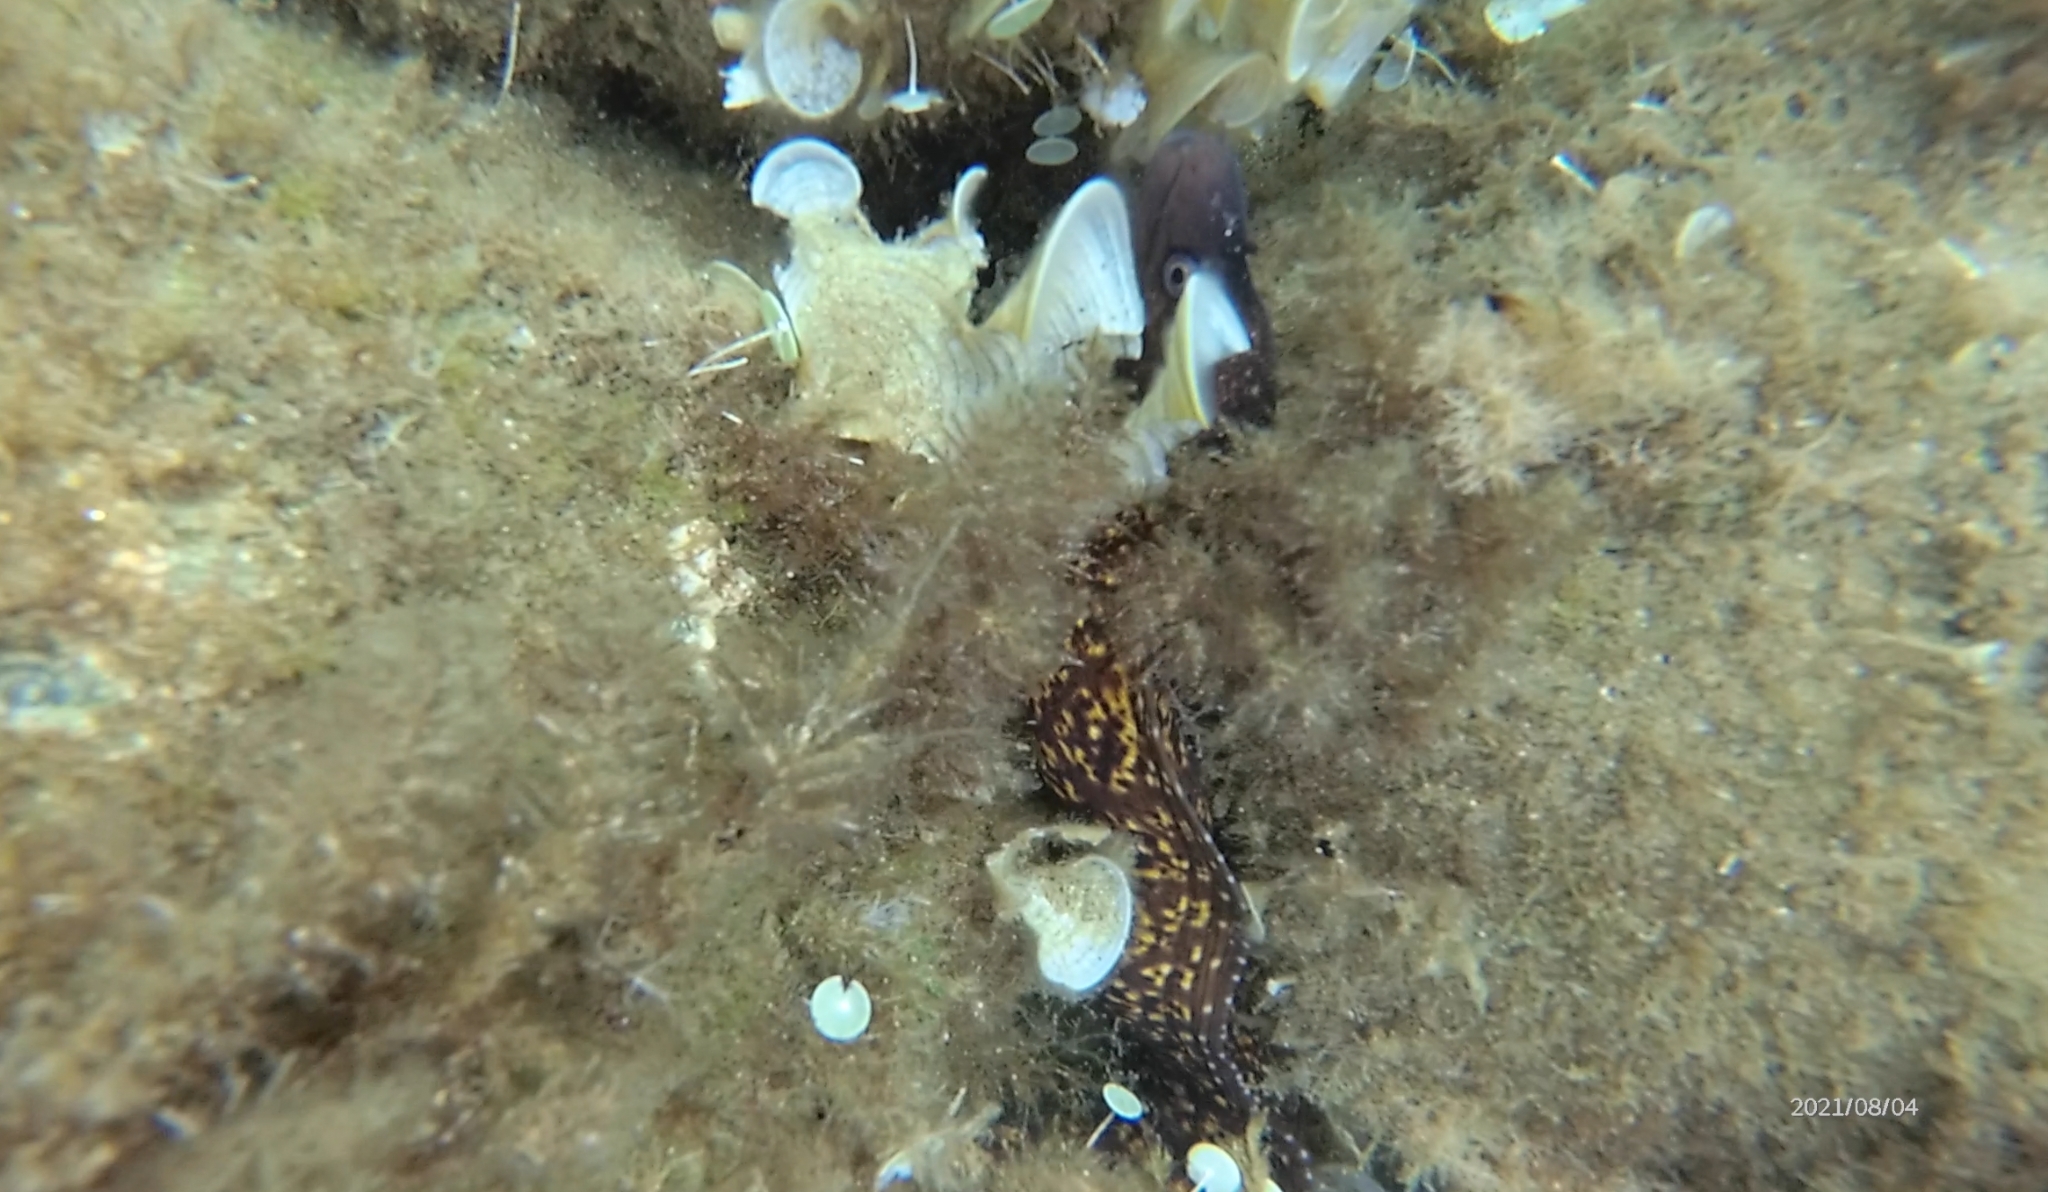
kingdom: Animalia
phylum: Chordata
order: Anguilliformes
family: Muraenidae
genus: Muraena
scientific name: Muraena helena
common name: Mediterranean moray
